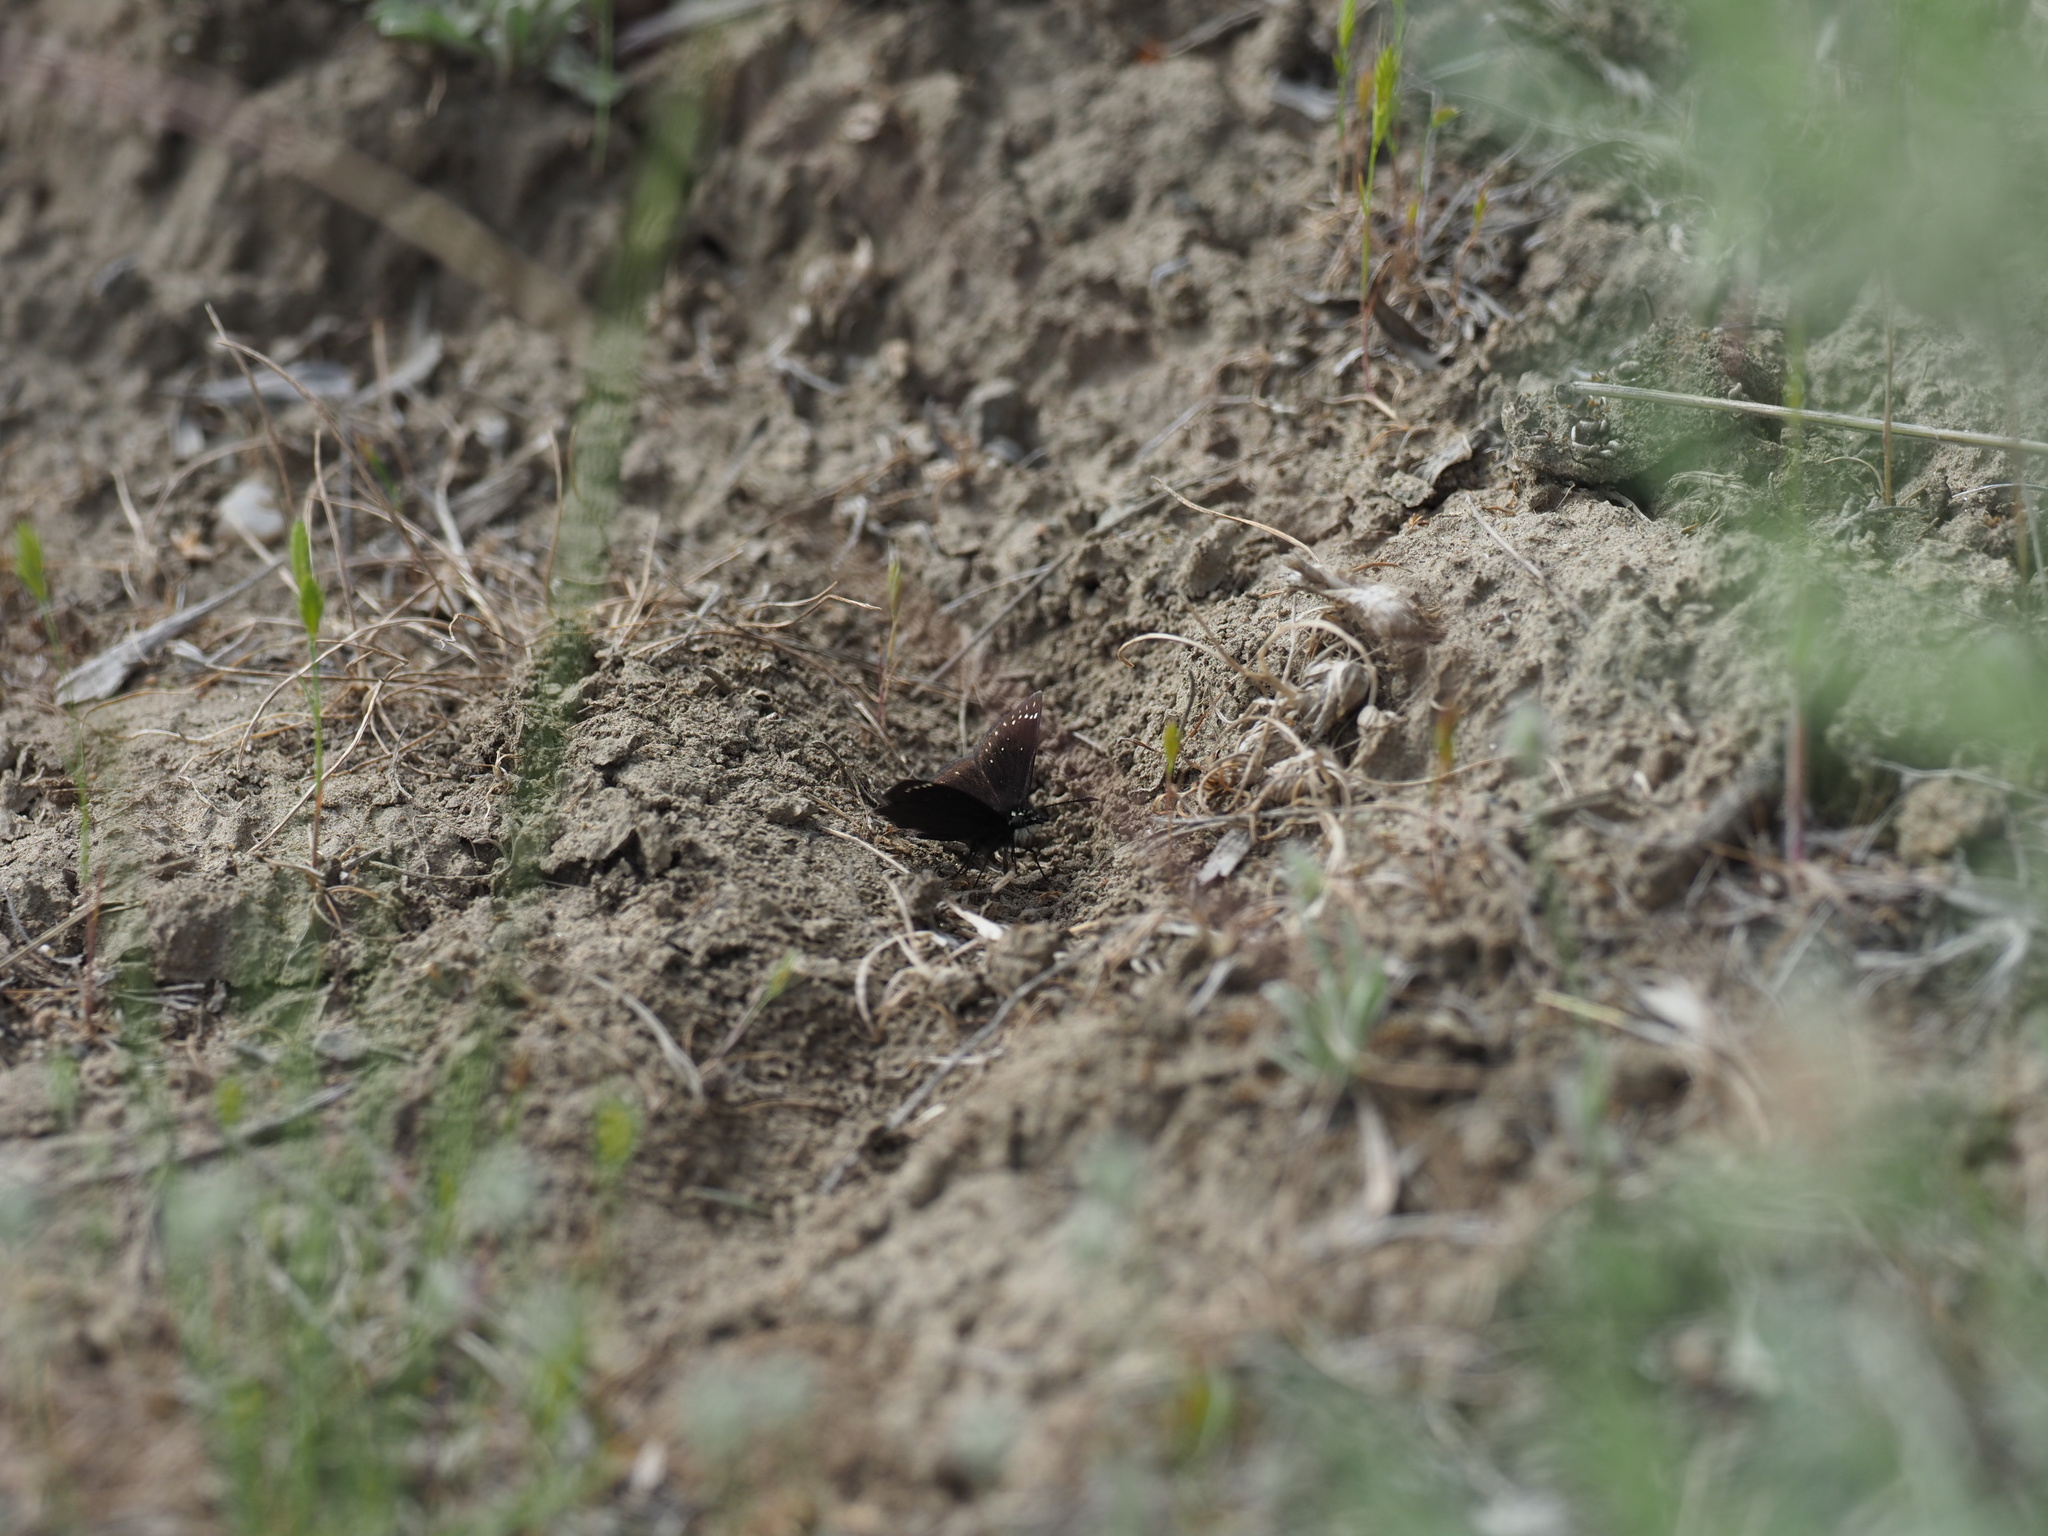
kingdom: Animalia
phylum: Arthropoda
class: Insecta
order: Lepidoptera
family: Hesperiidae
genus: Pholisora
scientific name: Pholisora catullus
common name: Common sootywing
